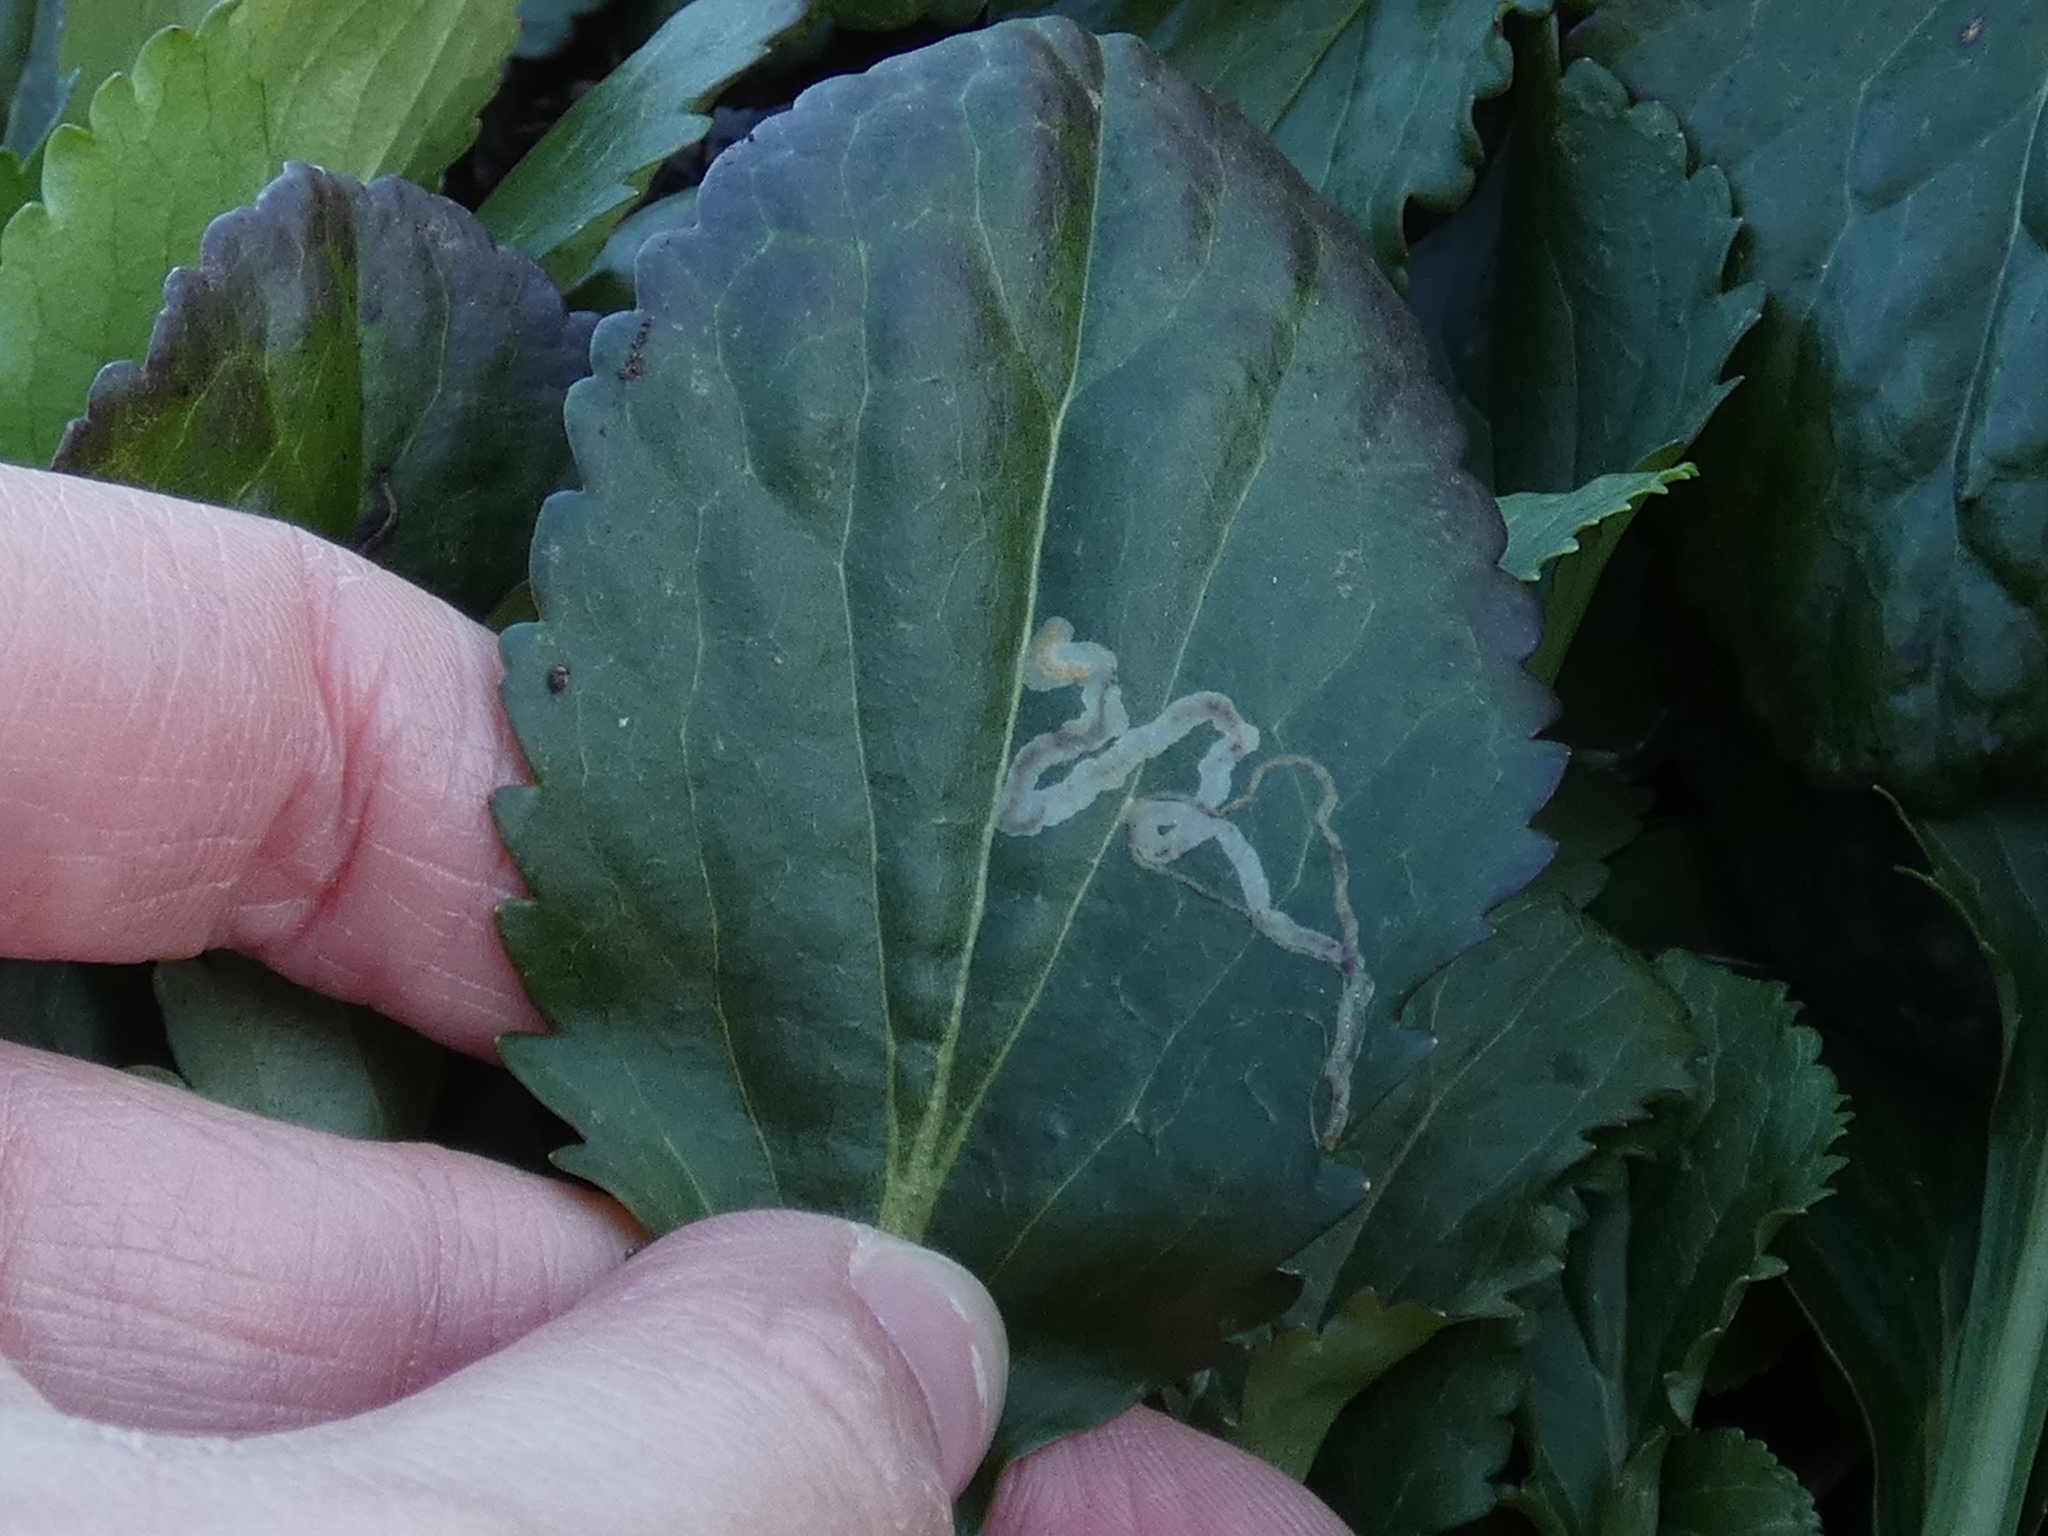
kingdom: Animalia
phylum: Arthropoda
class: Insecta
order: Lepidoptera
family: Gracillariidae
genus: Phyllocnistis
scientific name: Phyllocnistis insignis
